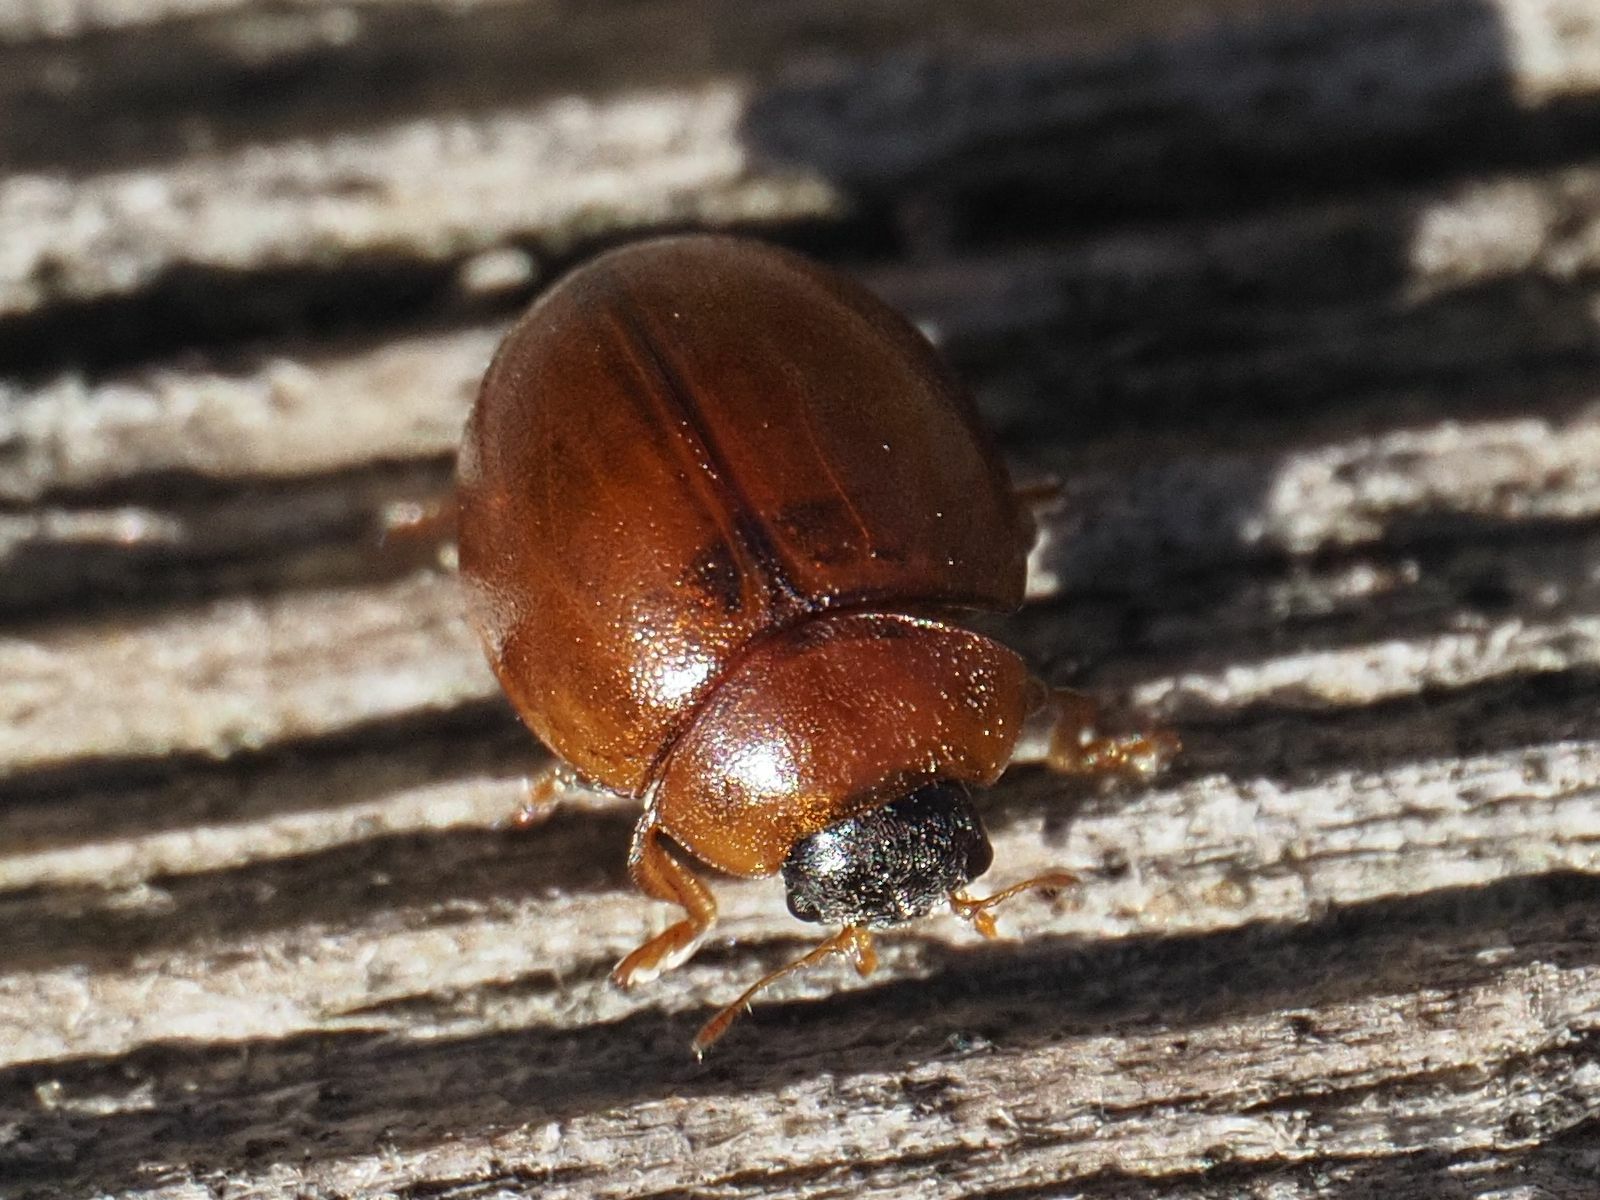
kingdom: Animalia
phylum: Arthropoda
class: Insecta
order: Coleoptera
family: Coccinellidae
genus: Cynegetis
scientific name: Cynegetis impunctata
